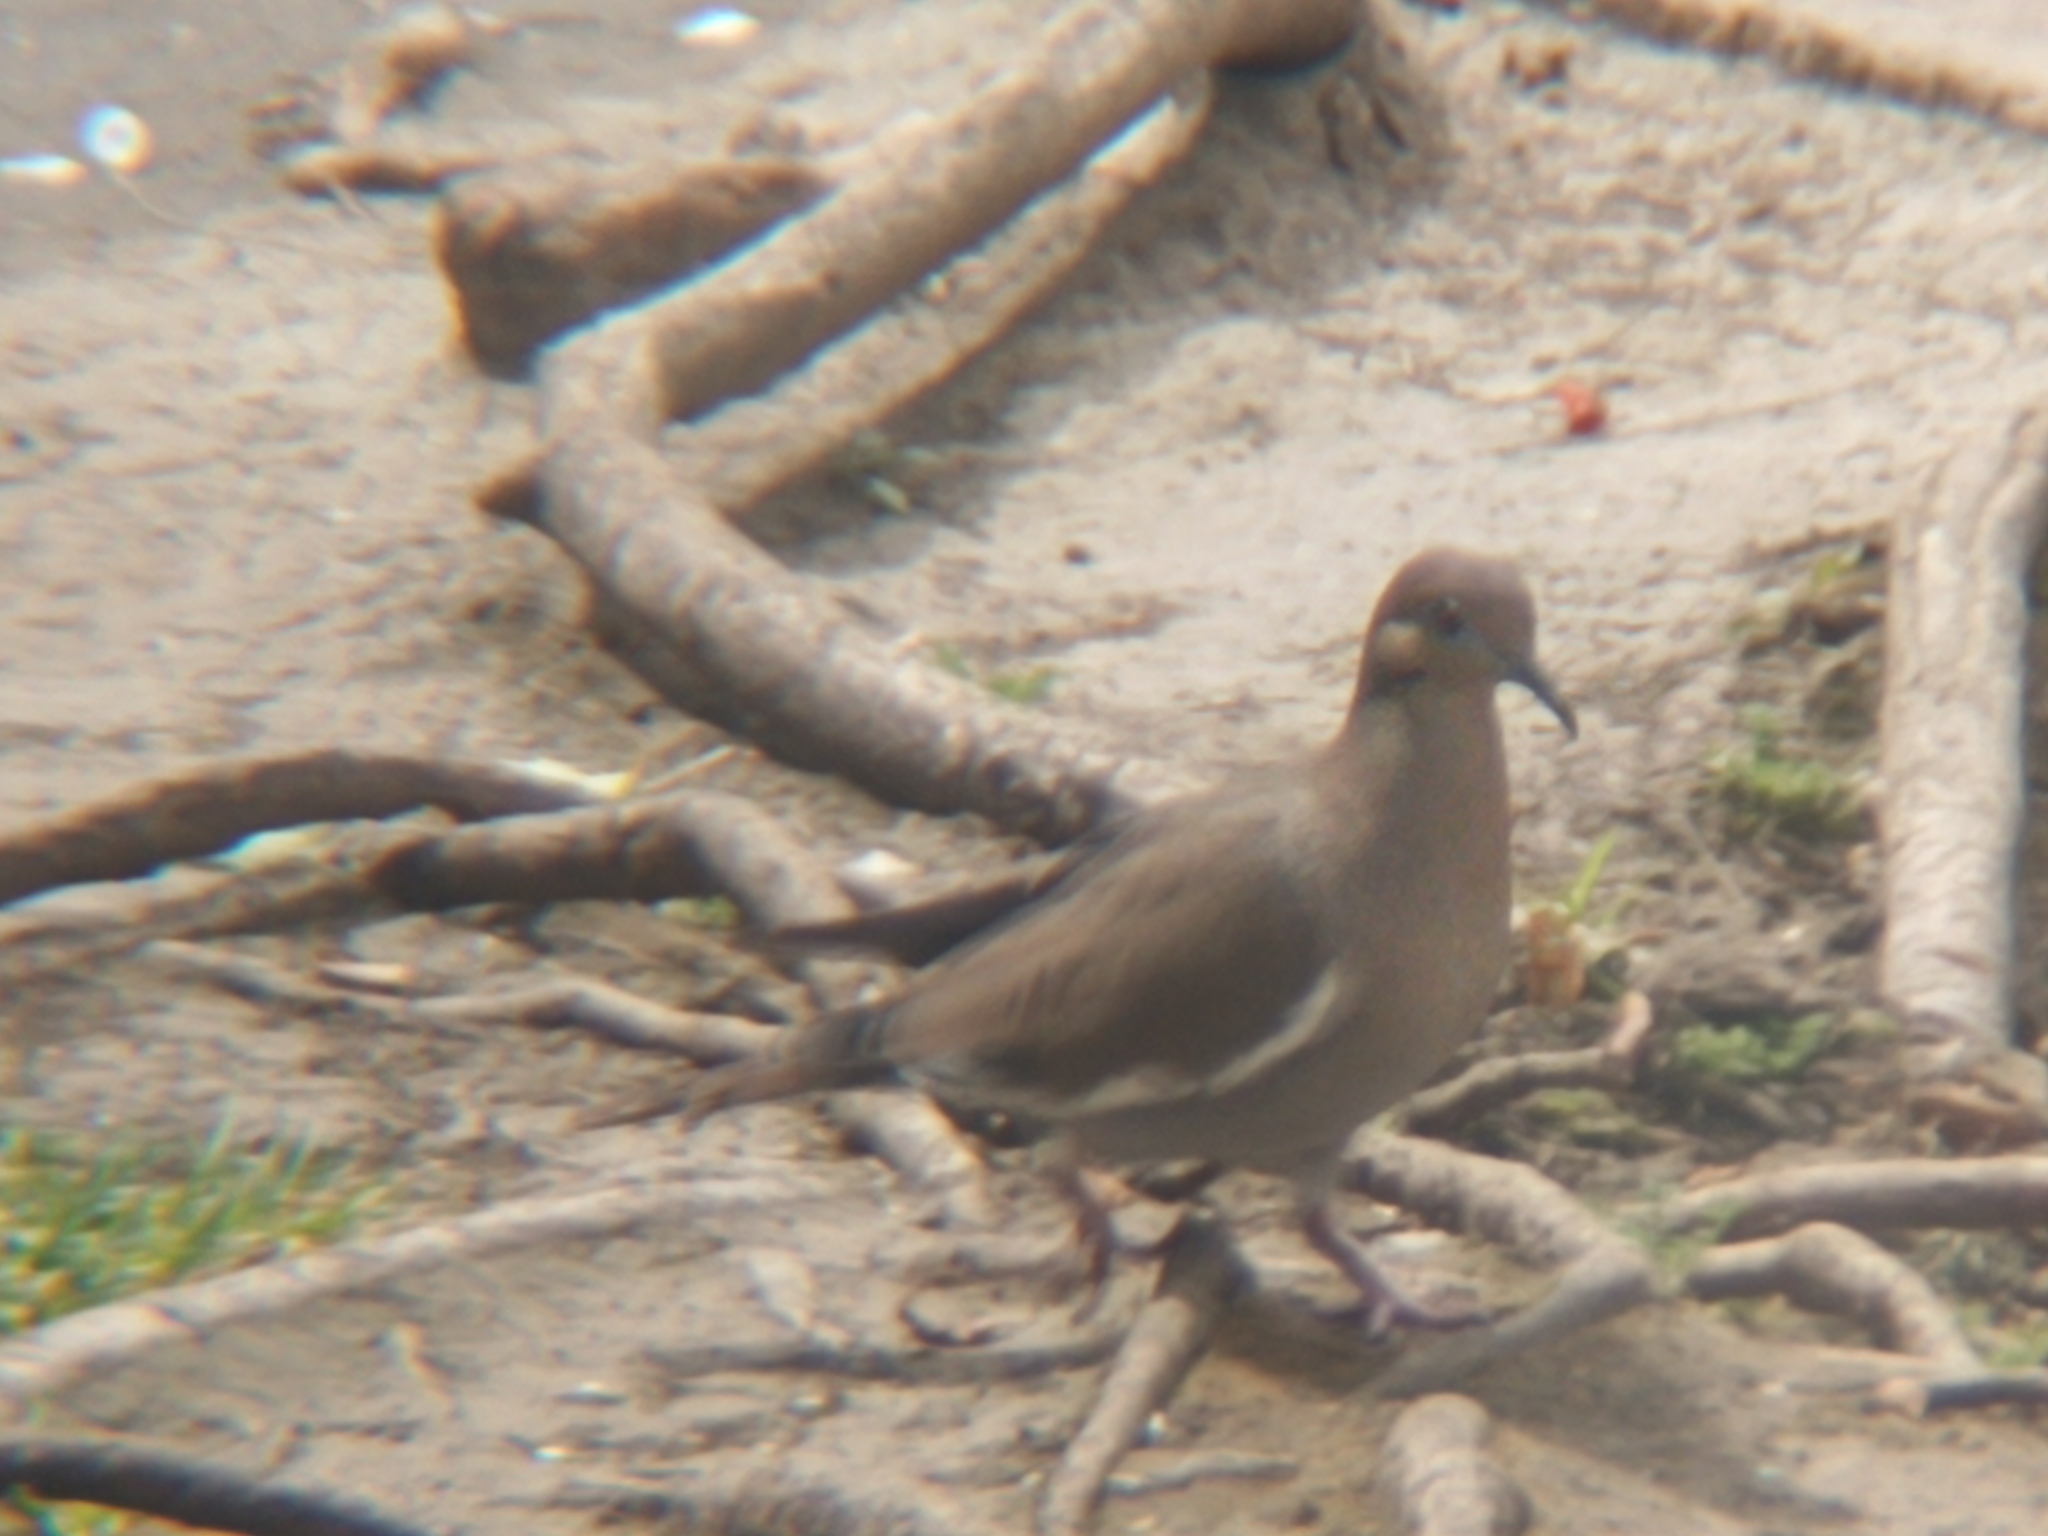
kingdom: Animalia
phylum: Chordata
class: Aves
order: Columbiformes
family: Columbidae
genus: Zenaida
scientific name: Zenaida asiatica
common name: White-winged dove
